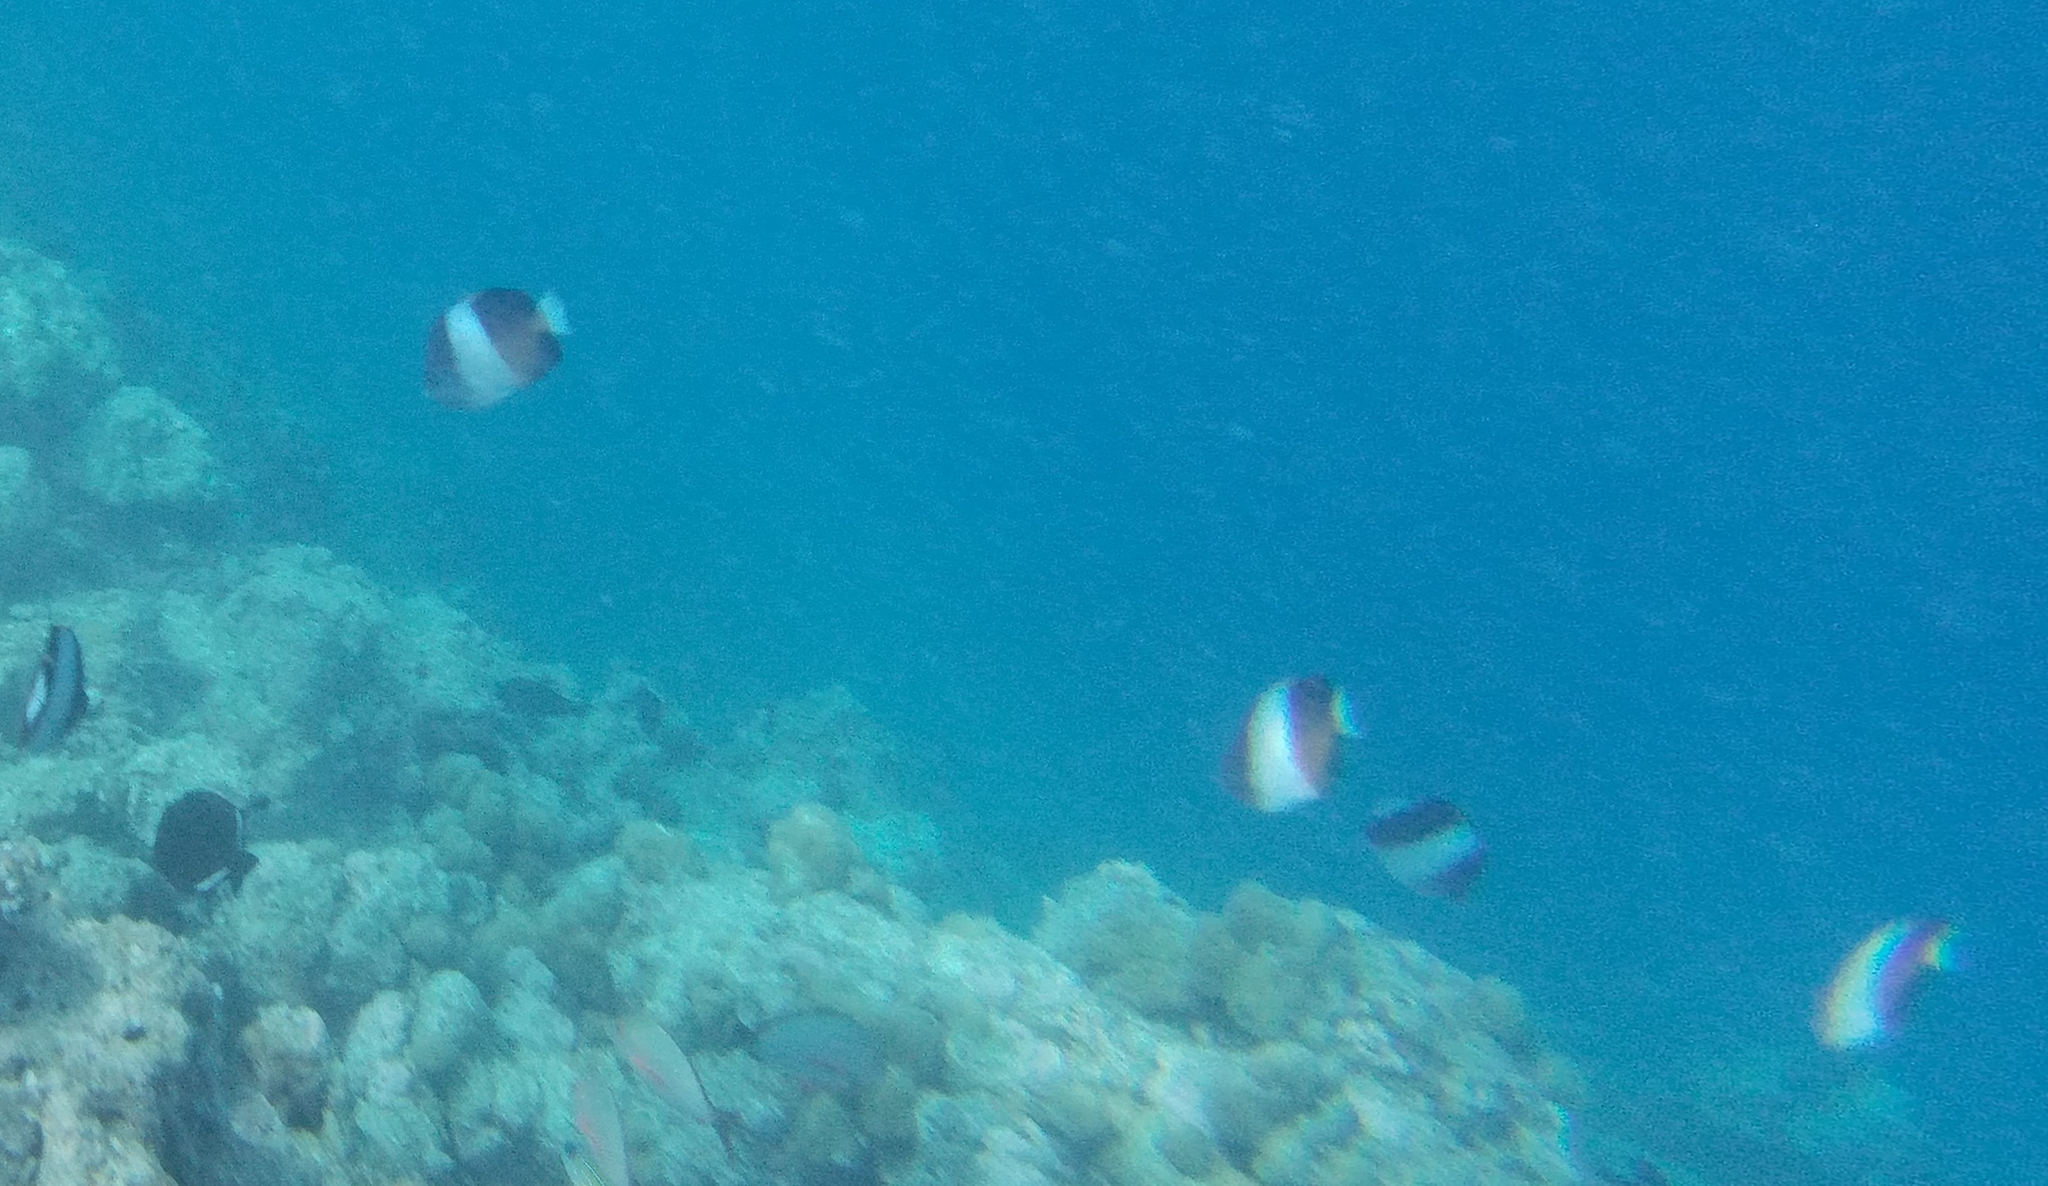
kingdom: Animalia
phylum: Chordata
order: Perciformes
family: Chaetodontidae
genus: Hemitaurichthys
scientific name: Hemitaurichthys zoster
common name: Brown-and-white butterflyfish
